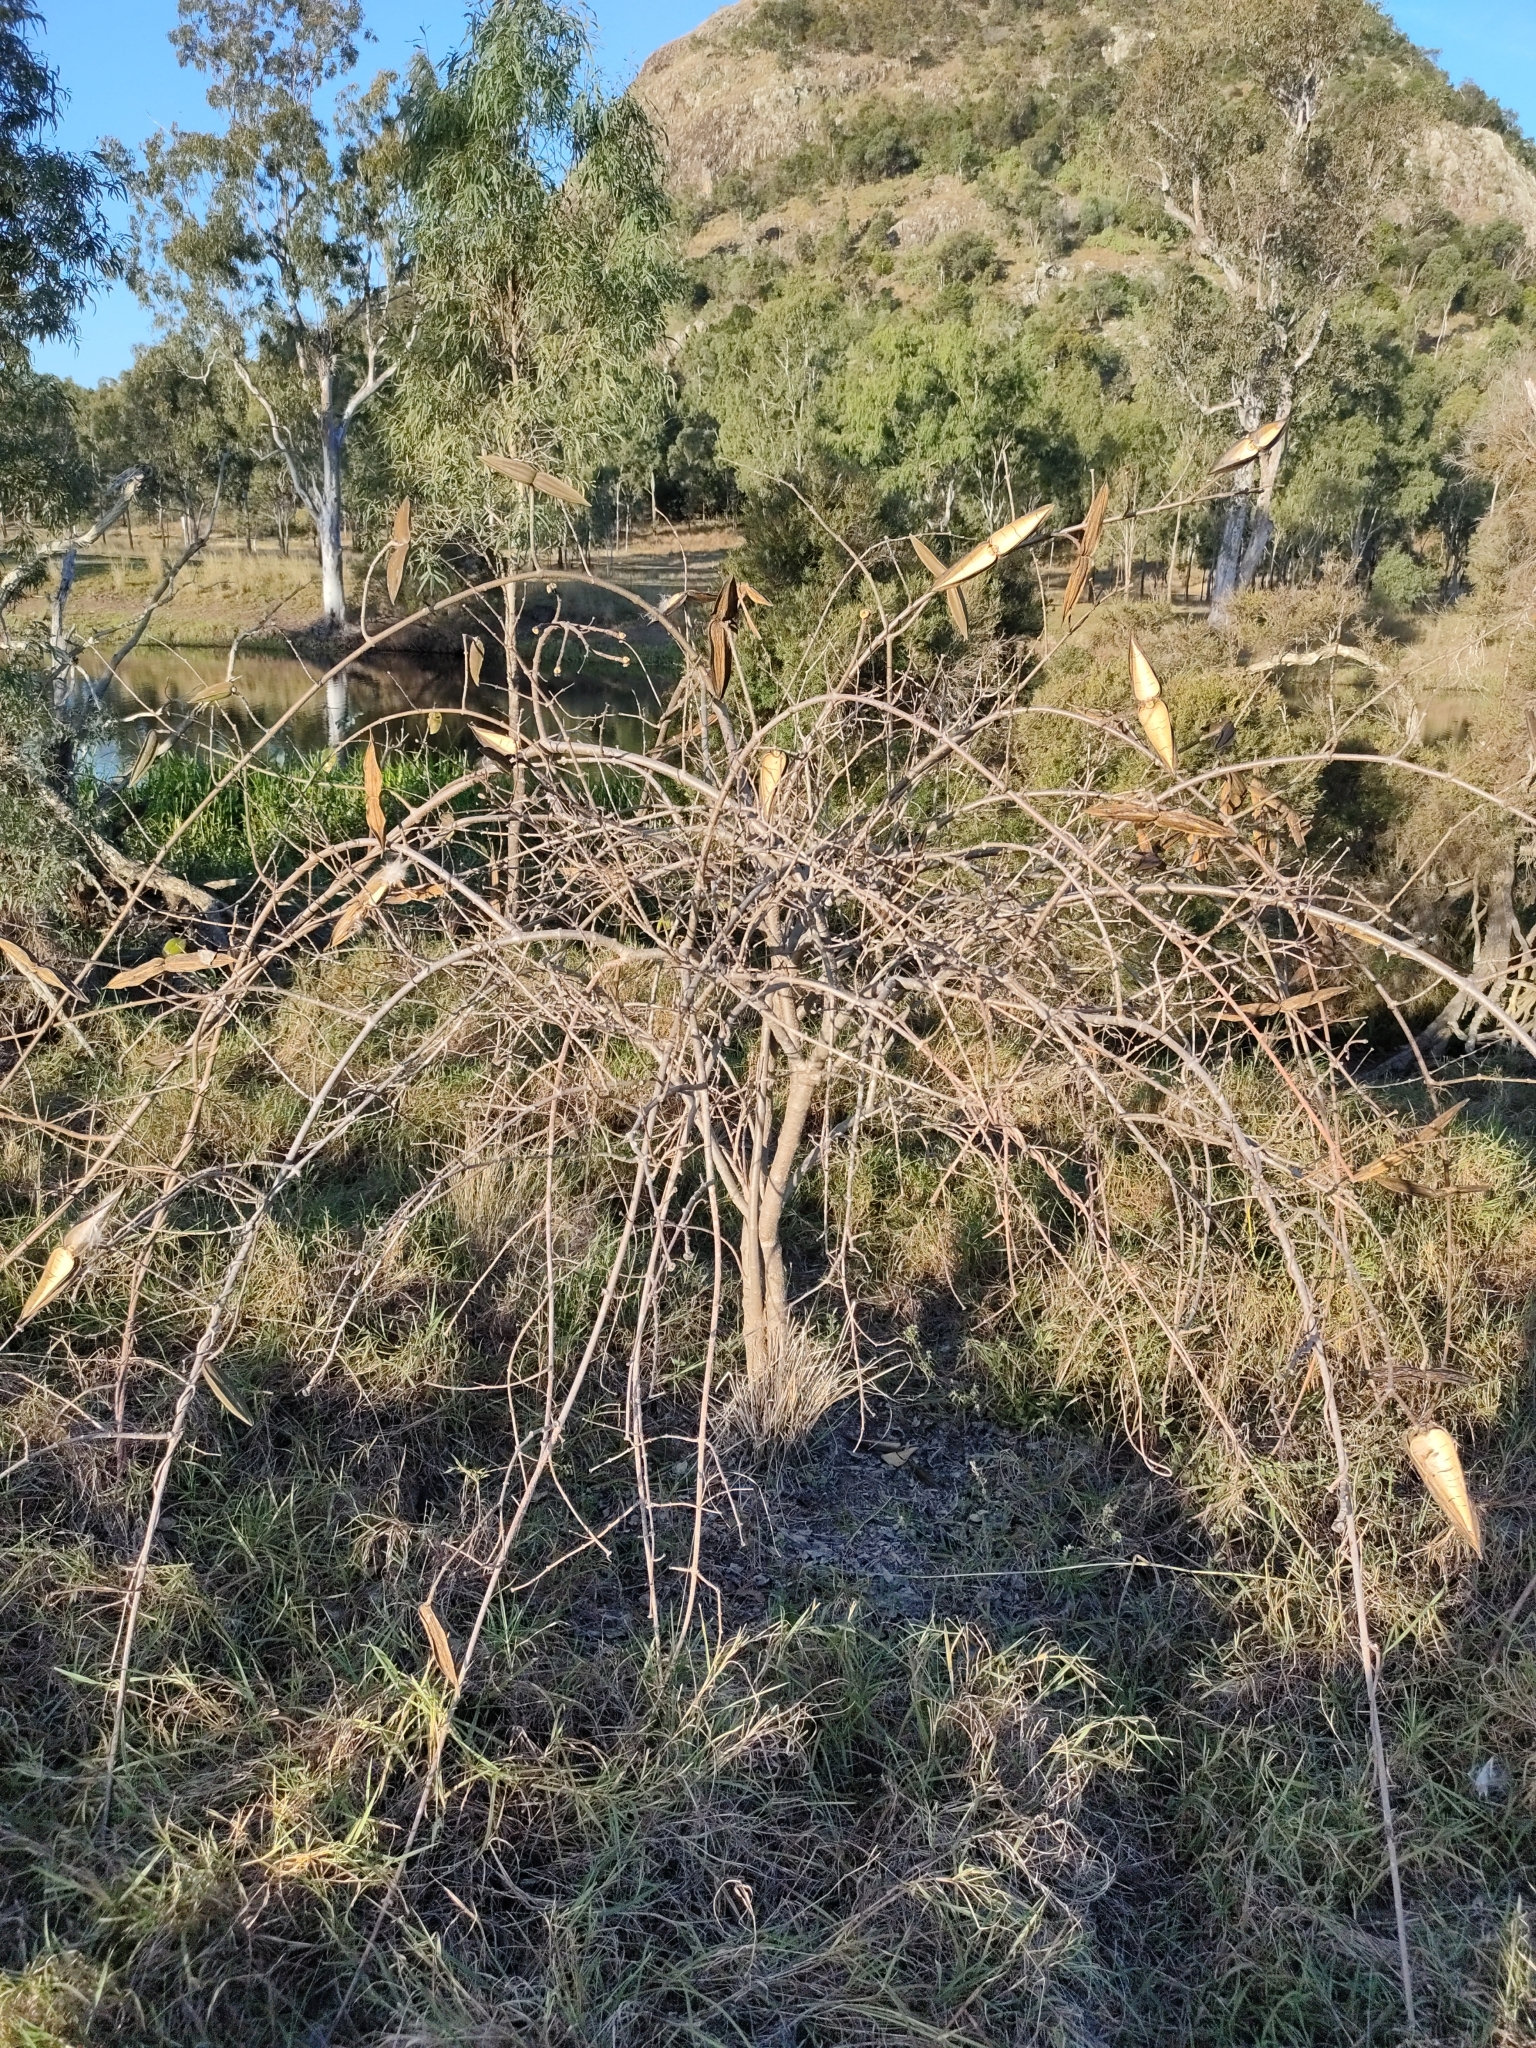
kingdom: Plantae
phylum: Tracheophyta
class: Magnoliopsida
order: Gentianales
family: Apocynaceae
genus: Cryptostegia
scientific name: Cryptostegia grandiflora
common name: Palay rubbervine
